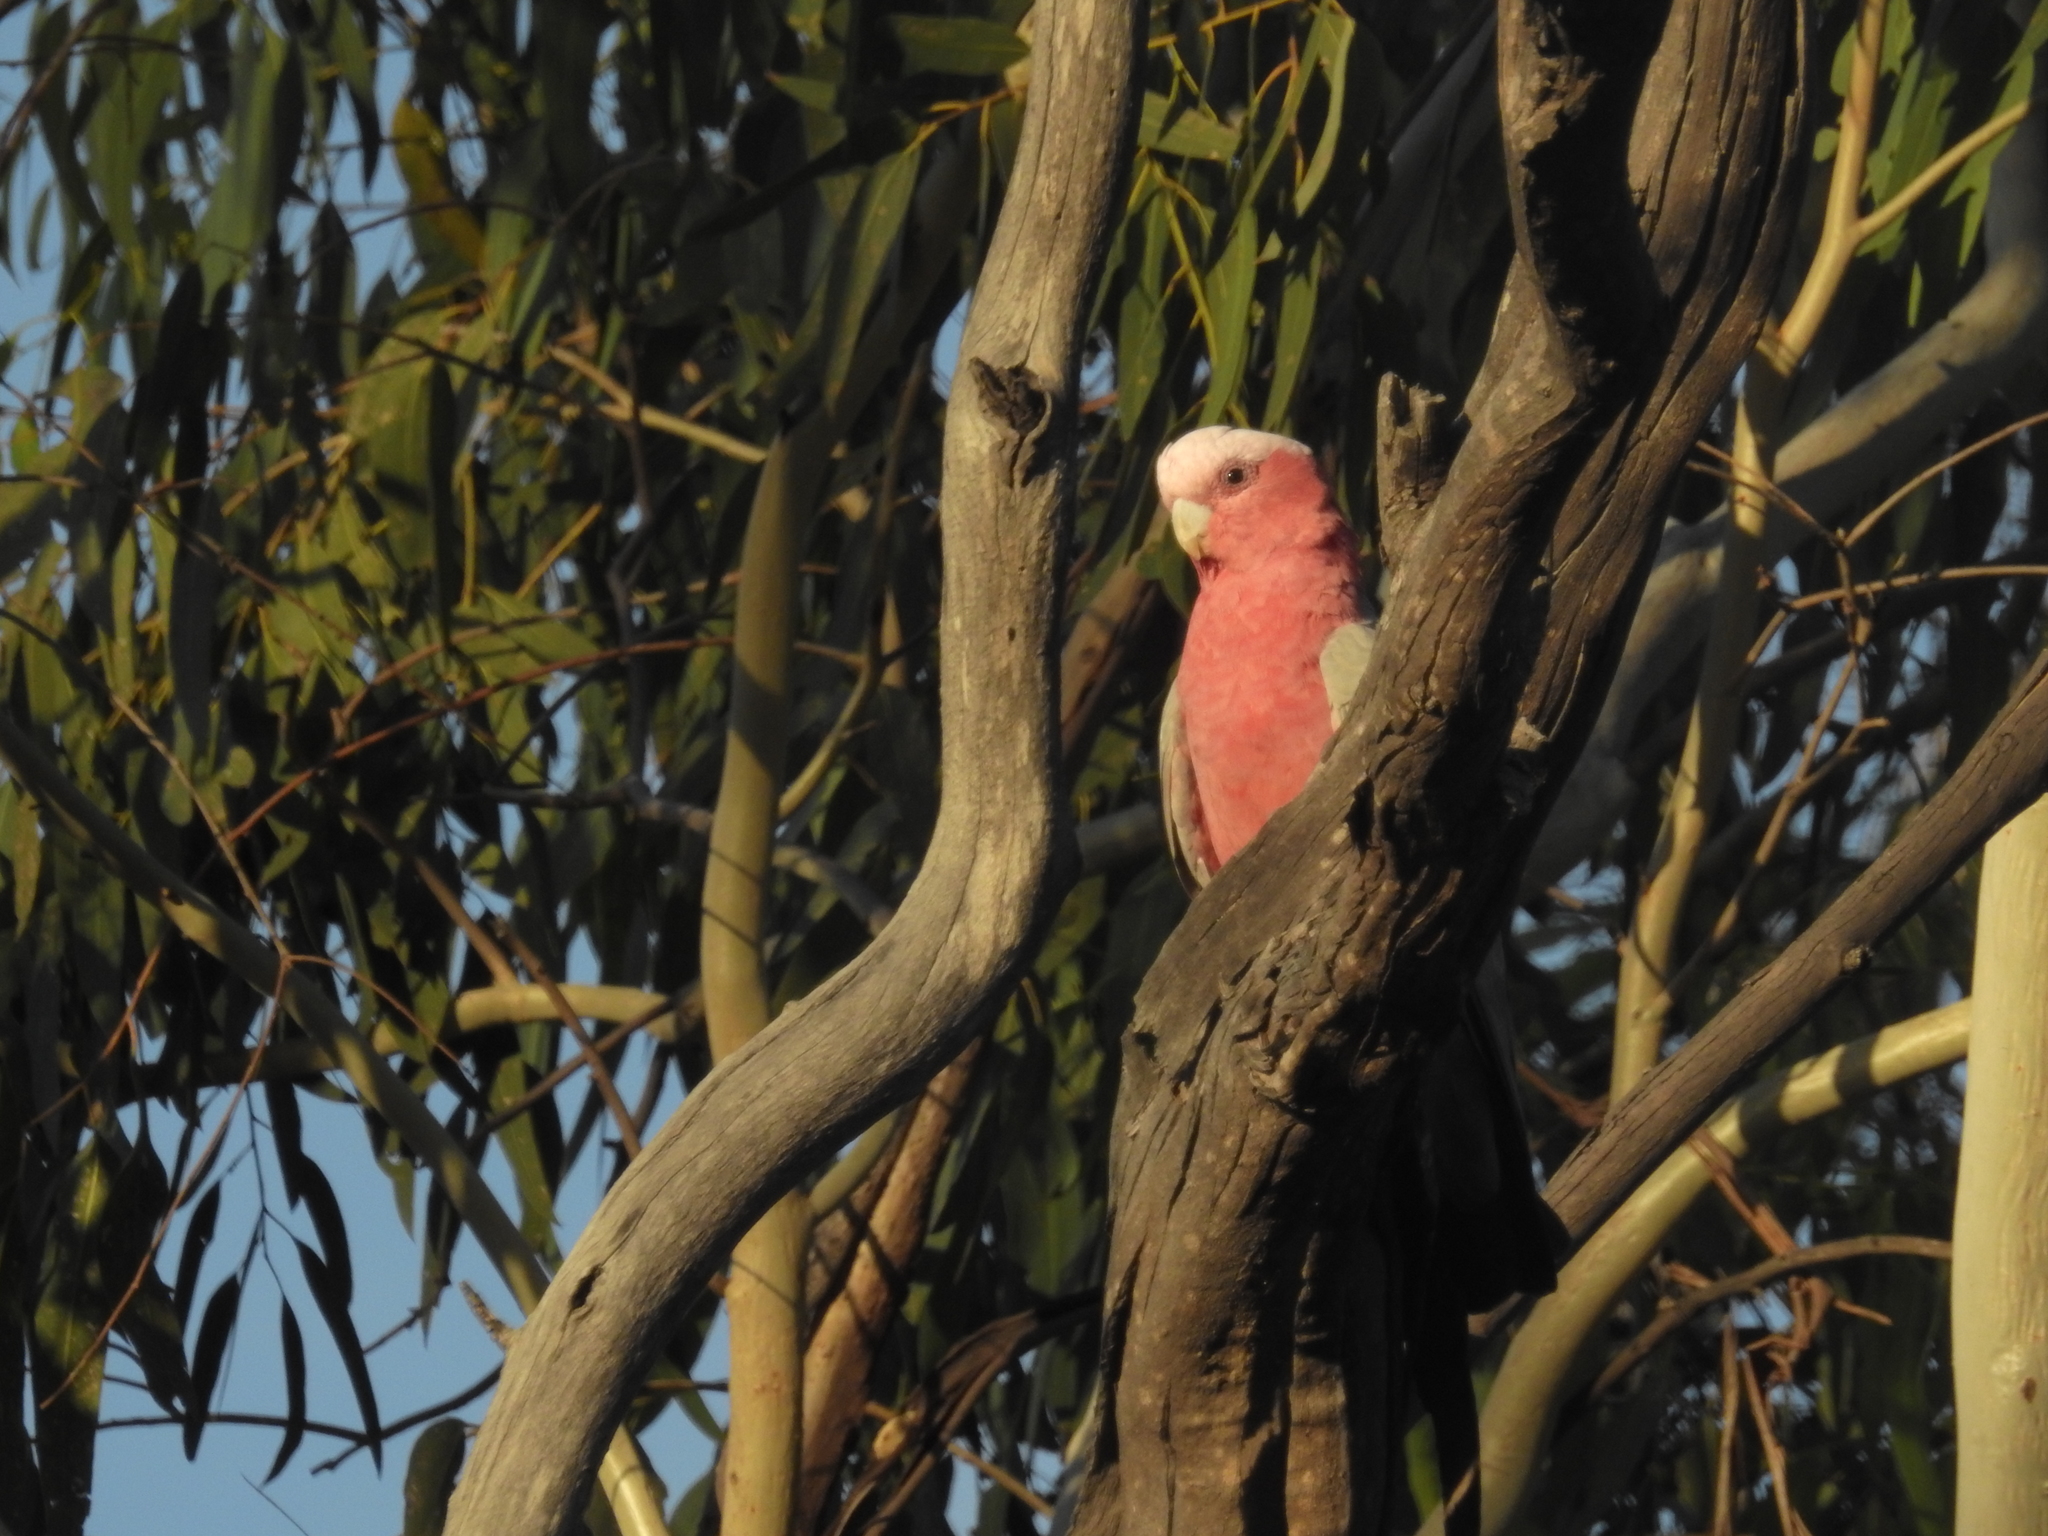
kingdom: Animalia
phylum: Chordata
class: Aves
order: Psittaciformes
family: Psittacidae
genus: Eolophus
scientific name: Eolophus roseicapilla
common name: Galah
